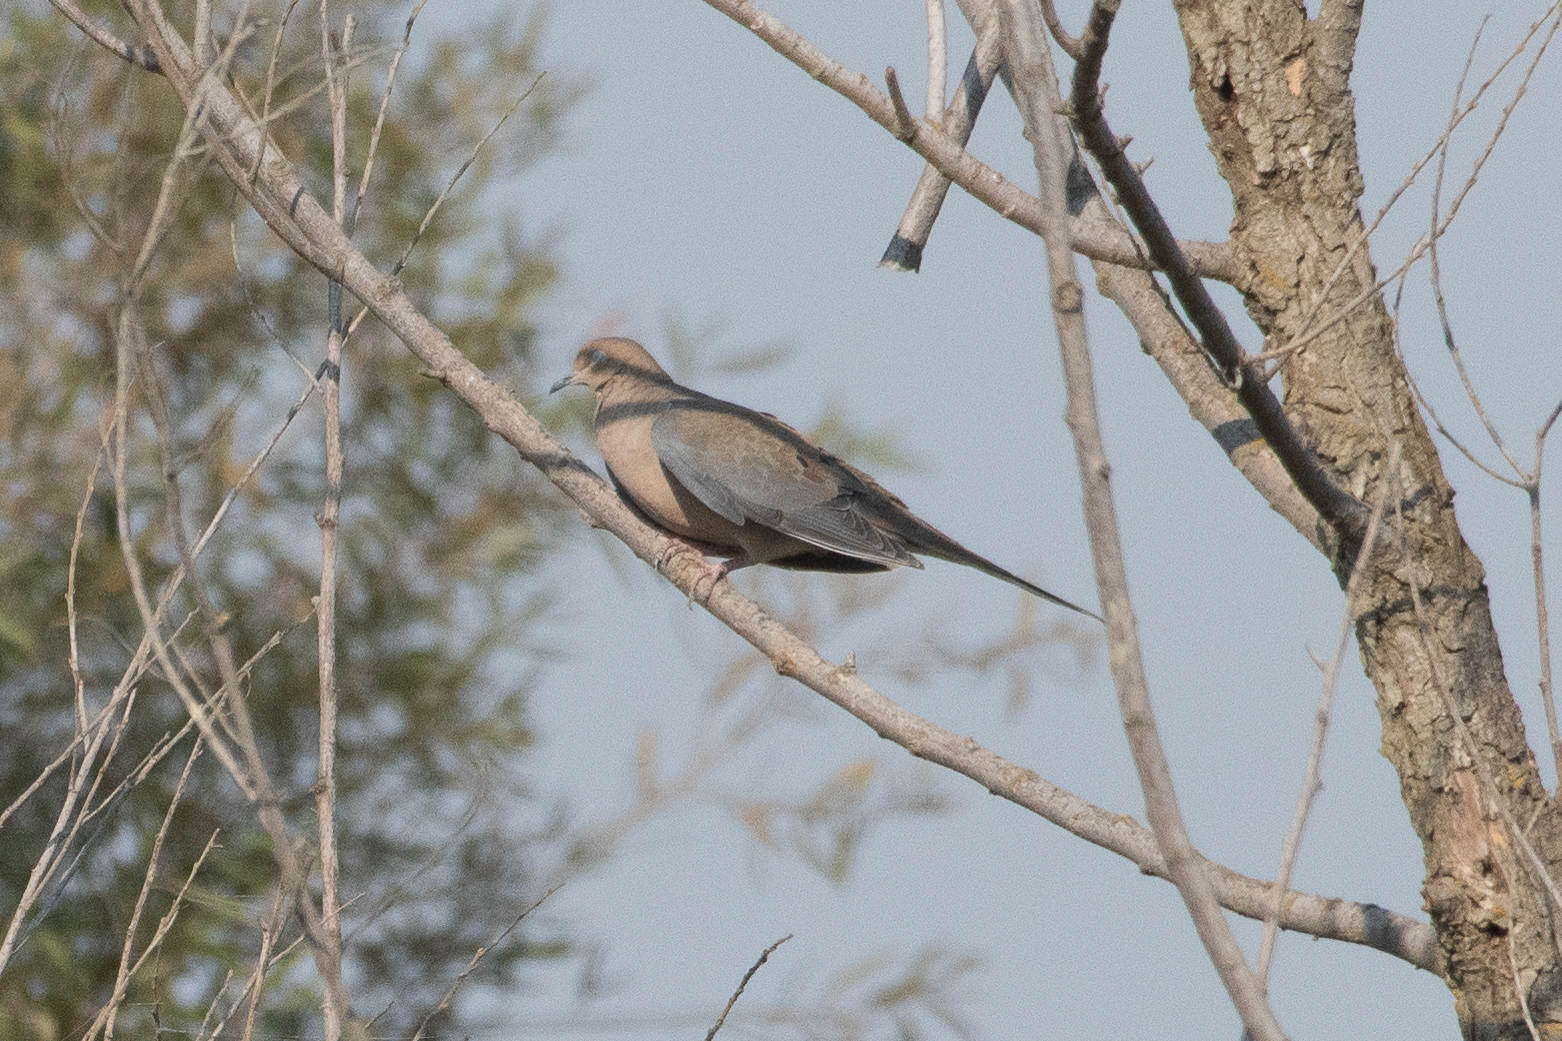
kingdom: Animalia
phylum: Chordata
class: Aves
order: Columbiformes
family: Columbidae
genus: Zenaida
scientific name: Zenaida macroura
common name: Mourning dove
